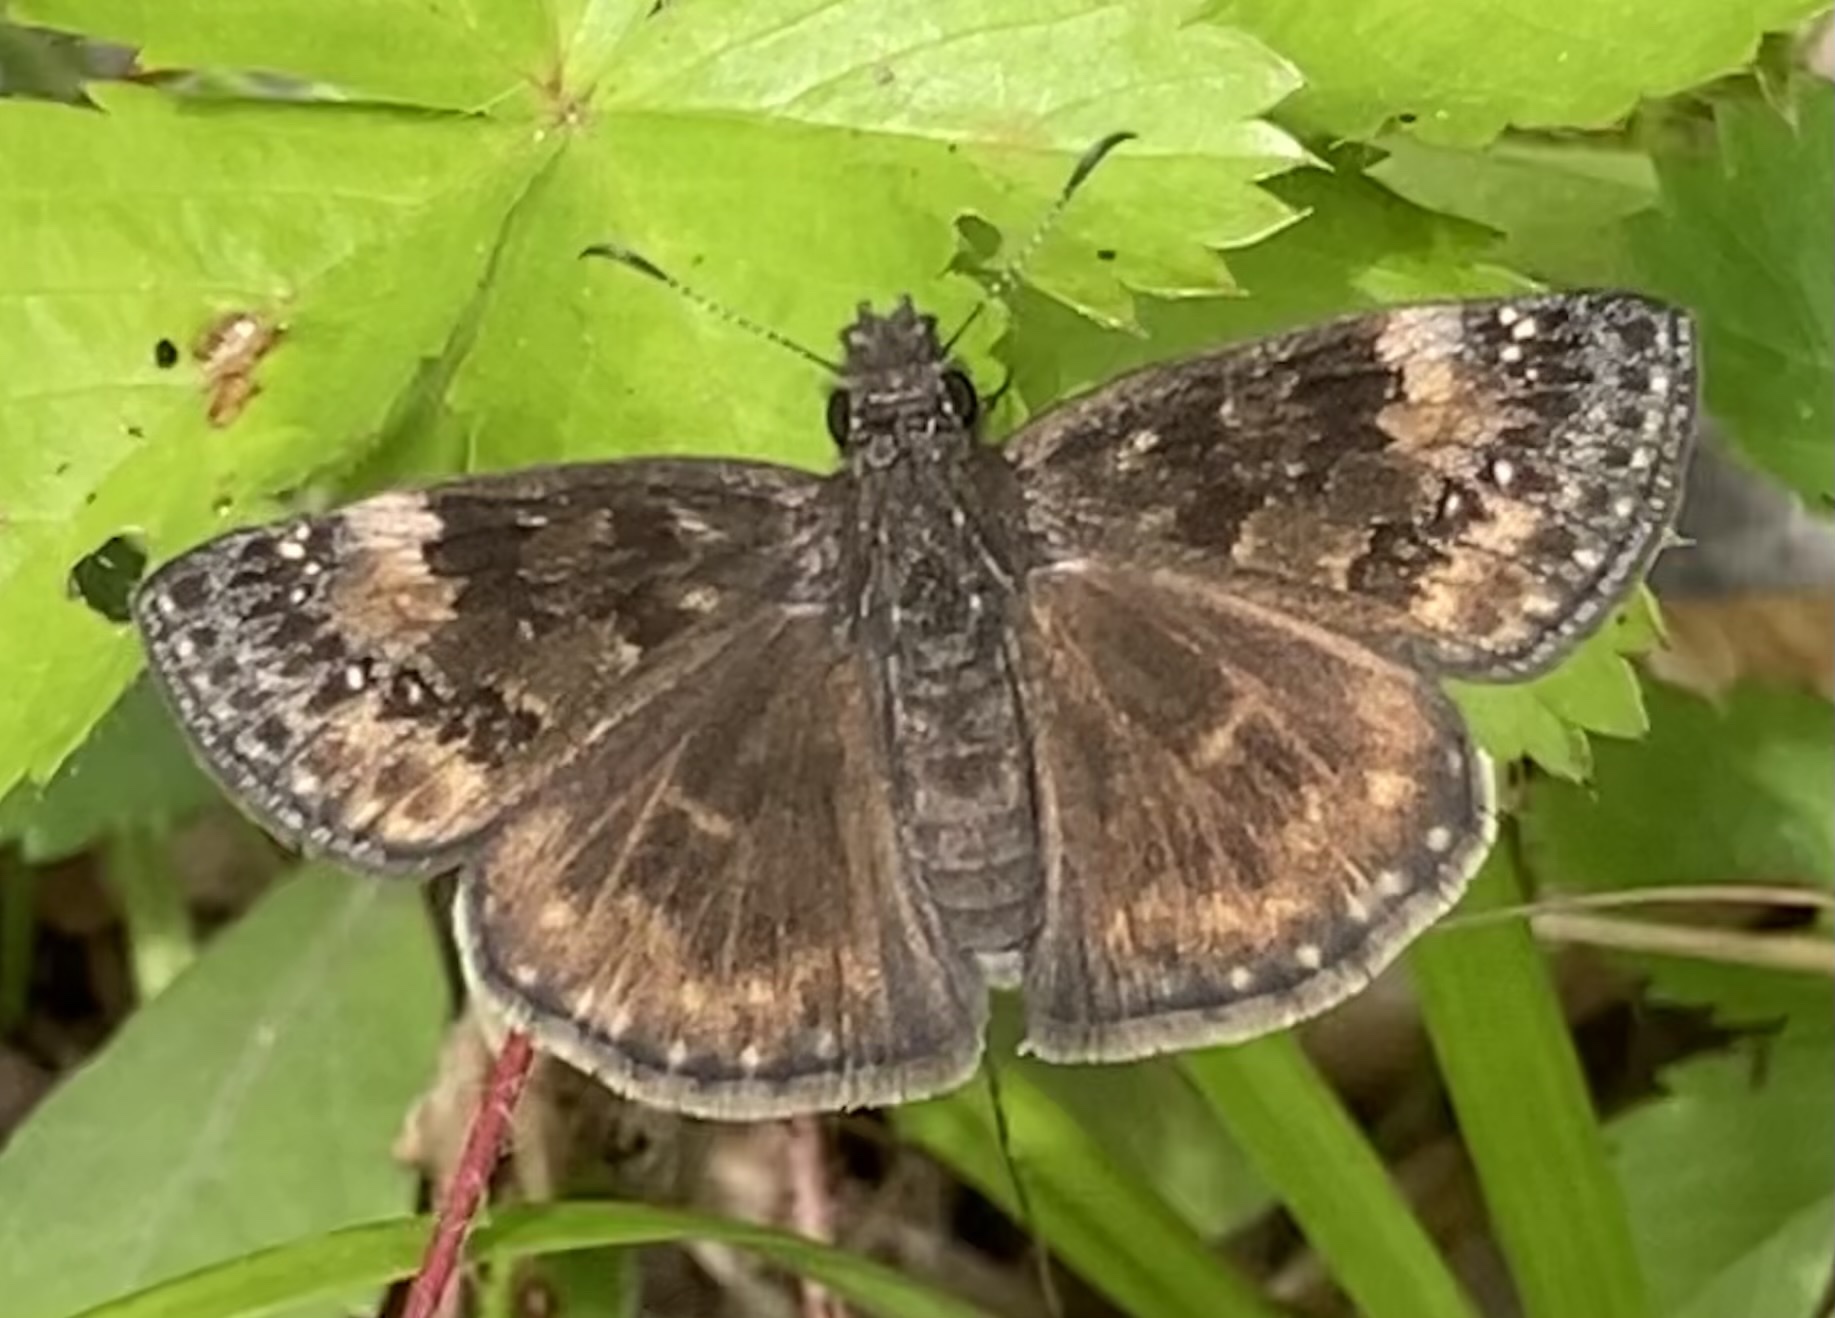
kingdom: Animalia
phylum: Arthropoda
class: Insecta
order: Lepidoptera
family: Hesperiidae
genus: Erynnis
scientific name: Erynnis baptisiae
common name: Wild indigo duskywing
